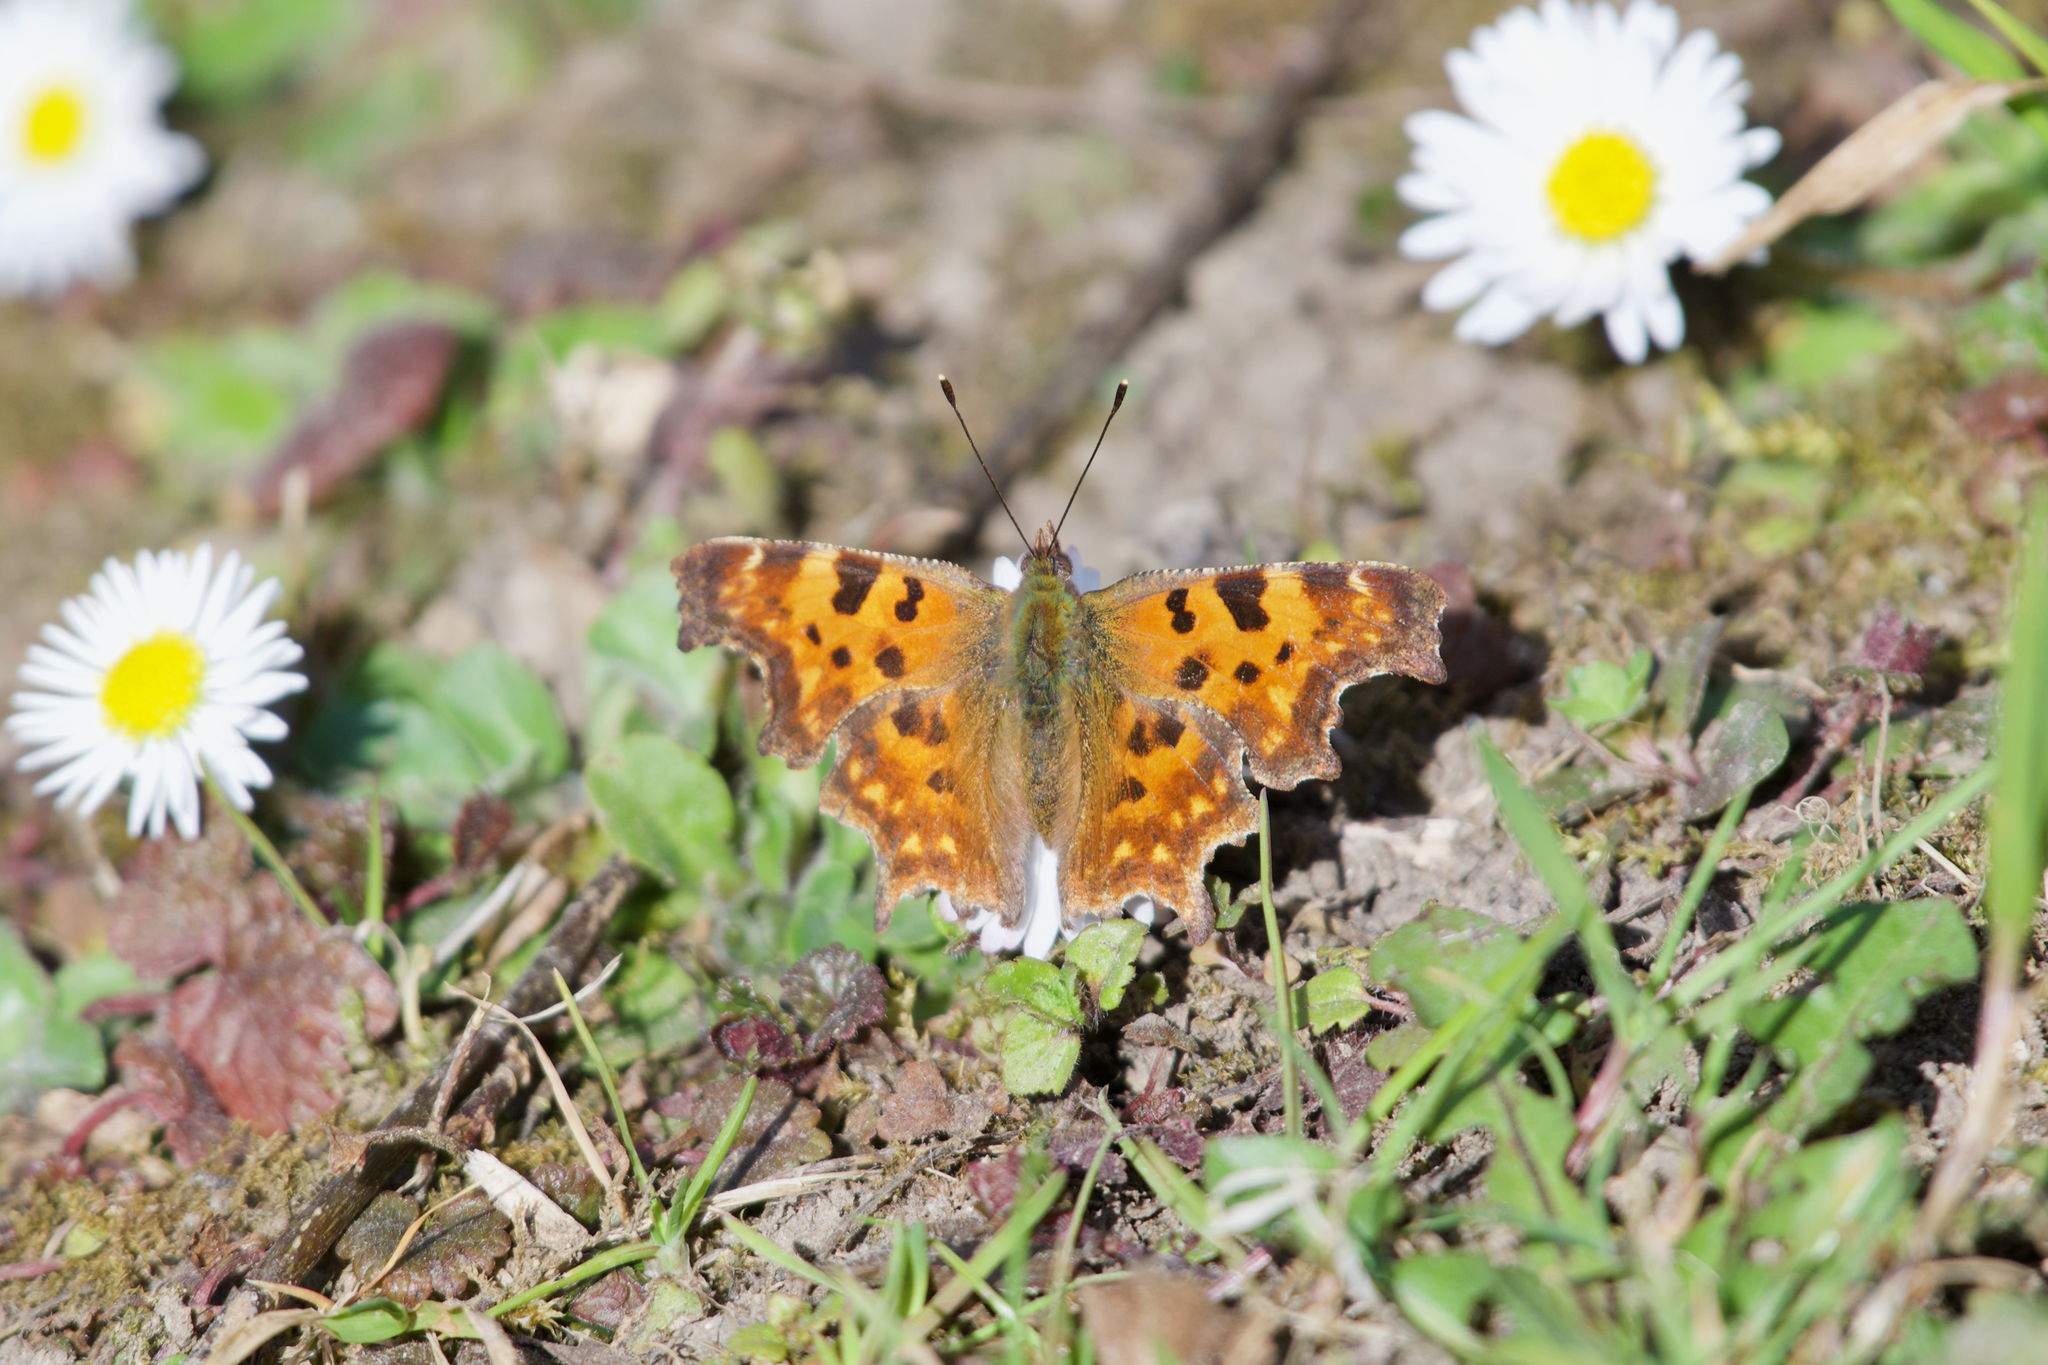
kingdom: Animalia
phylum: Arthropoda
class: Insecta
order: Lepidoptera
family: Nymphalidae
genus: Polygonia
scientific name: Polygonia c-album
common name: Comma
